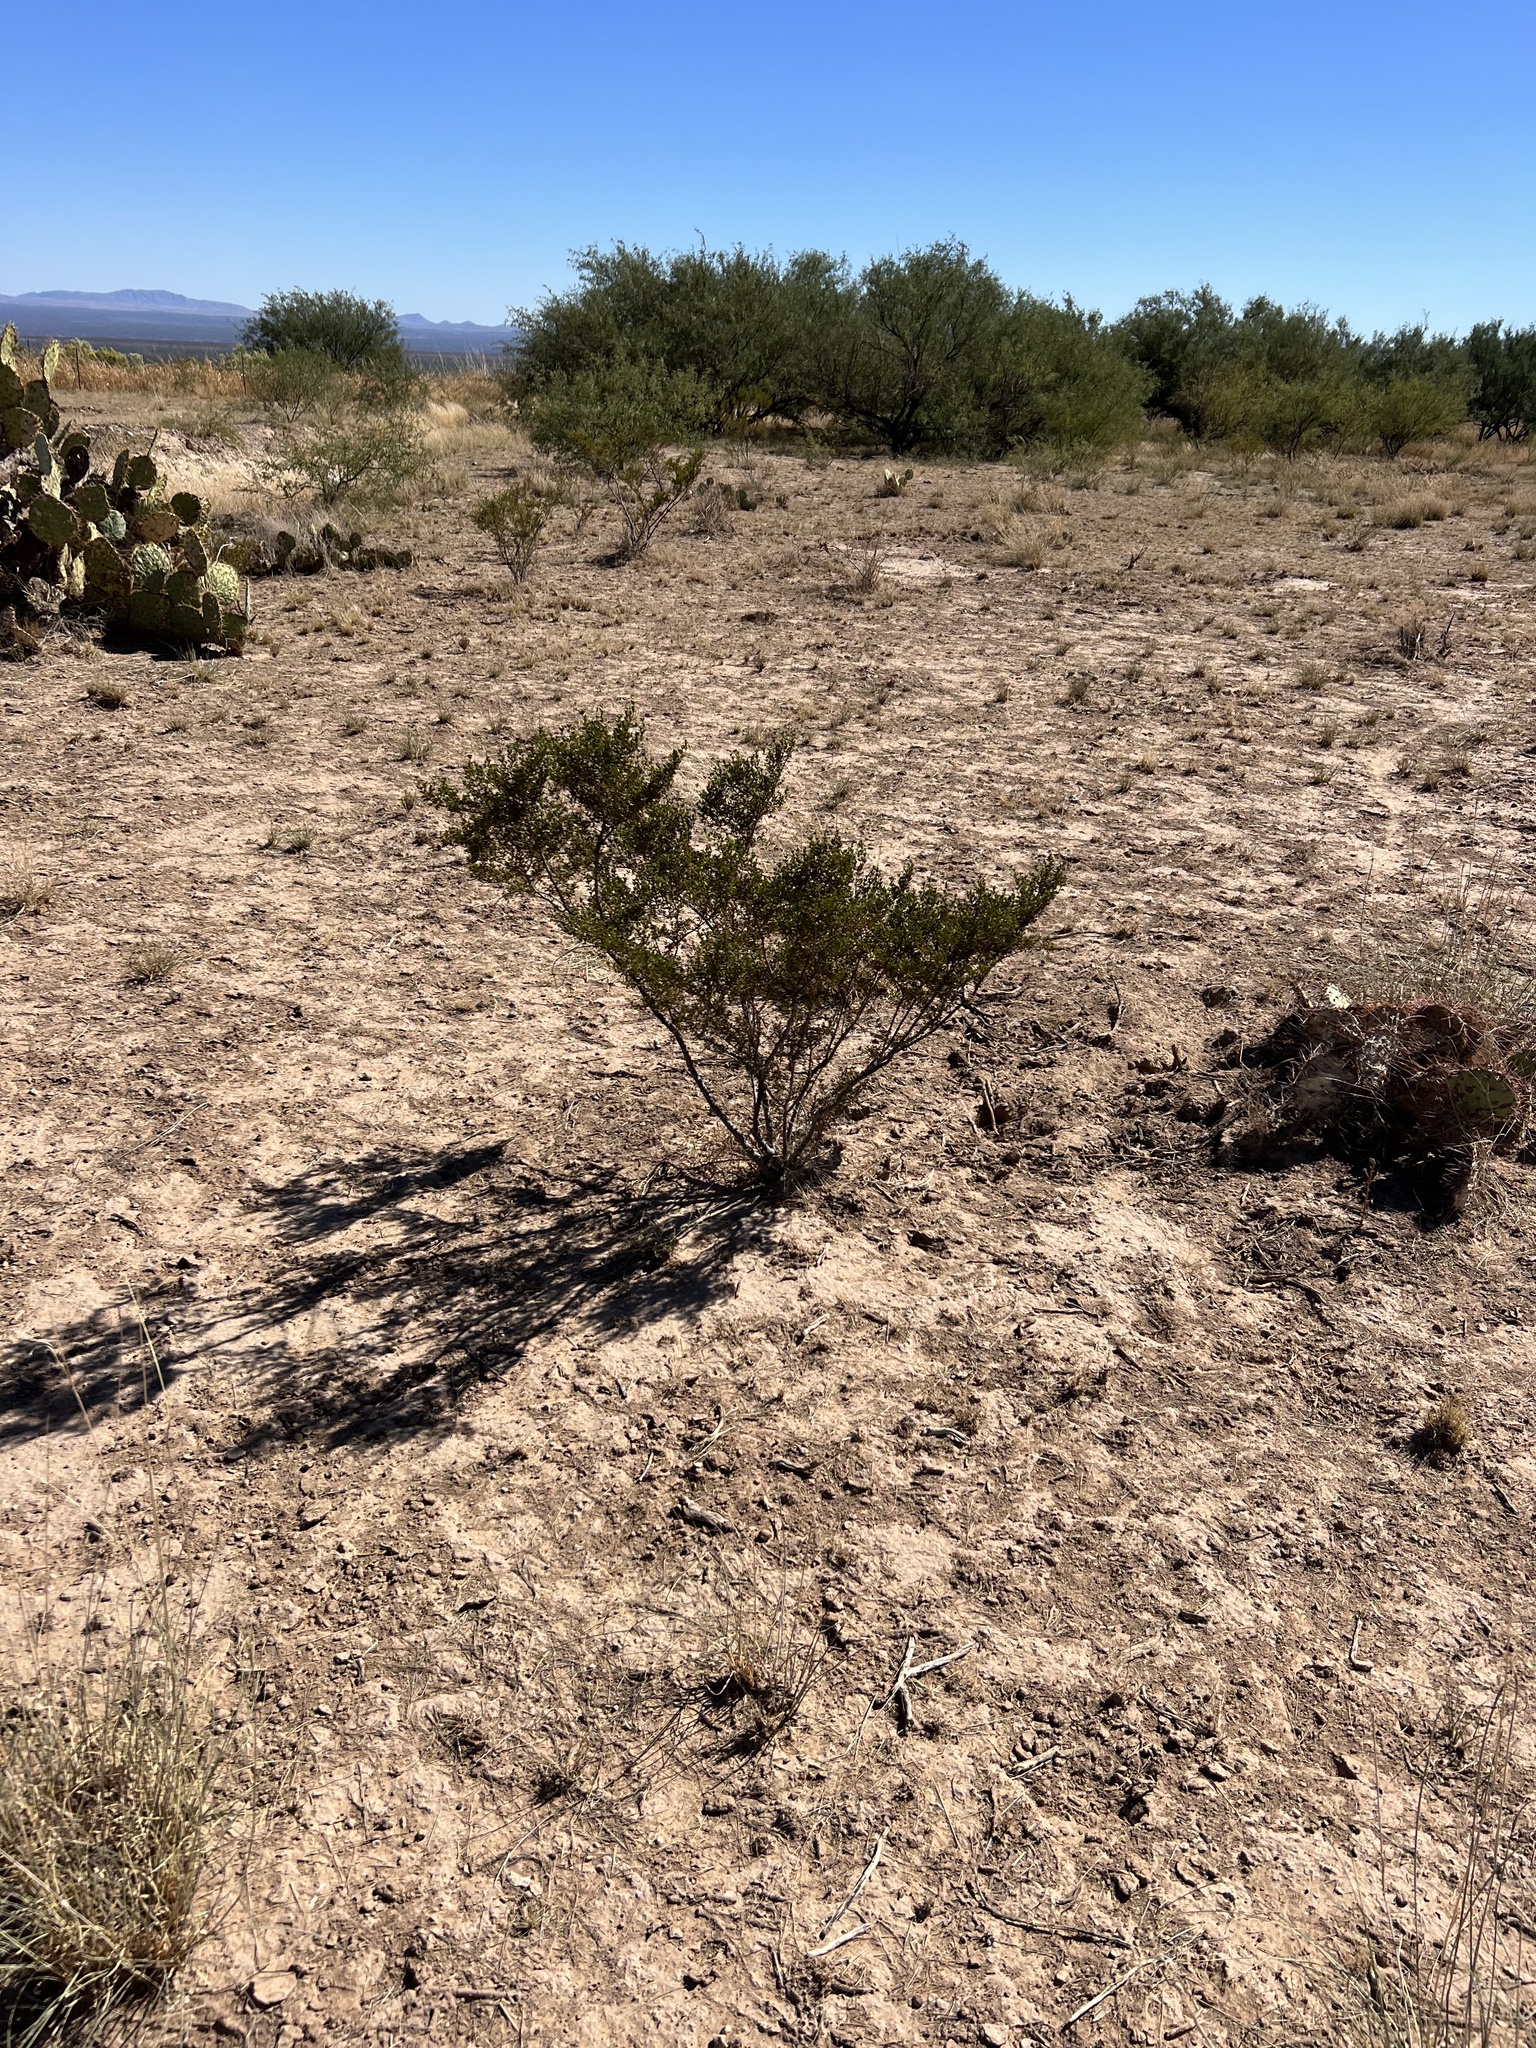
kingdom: Plantae
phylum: Tracheophyta
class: Magnoliopsida
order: Zygophyllales
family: Zygophyllaceae
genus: Larrea
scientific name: Larrea tridentata
